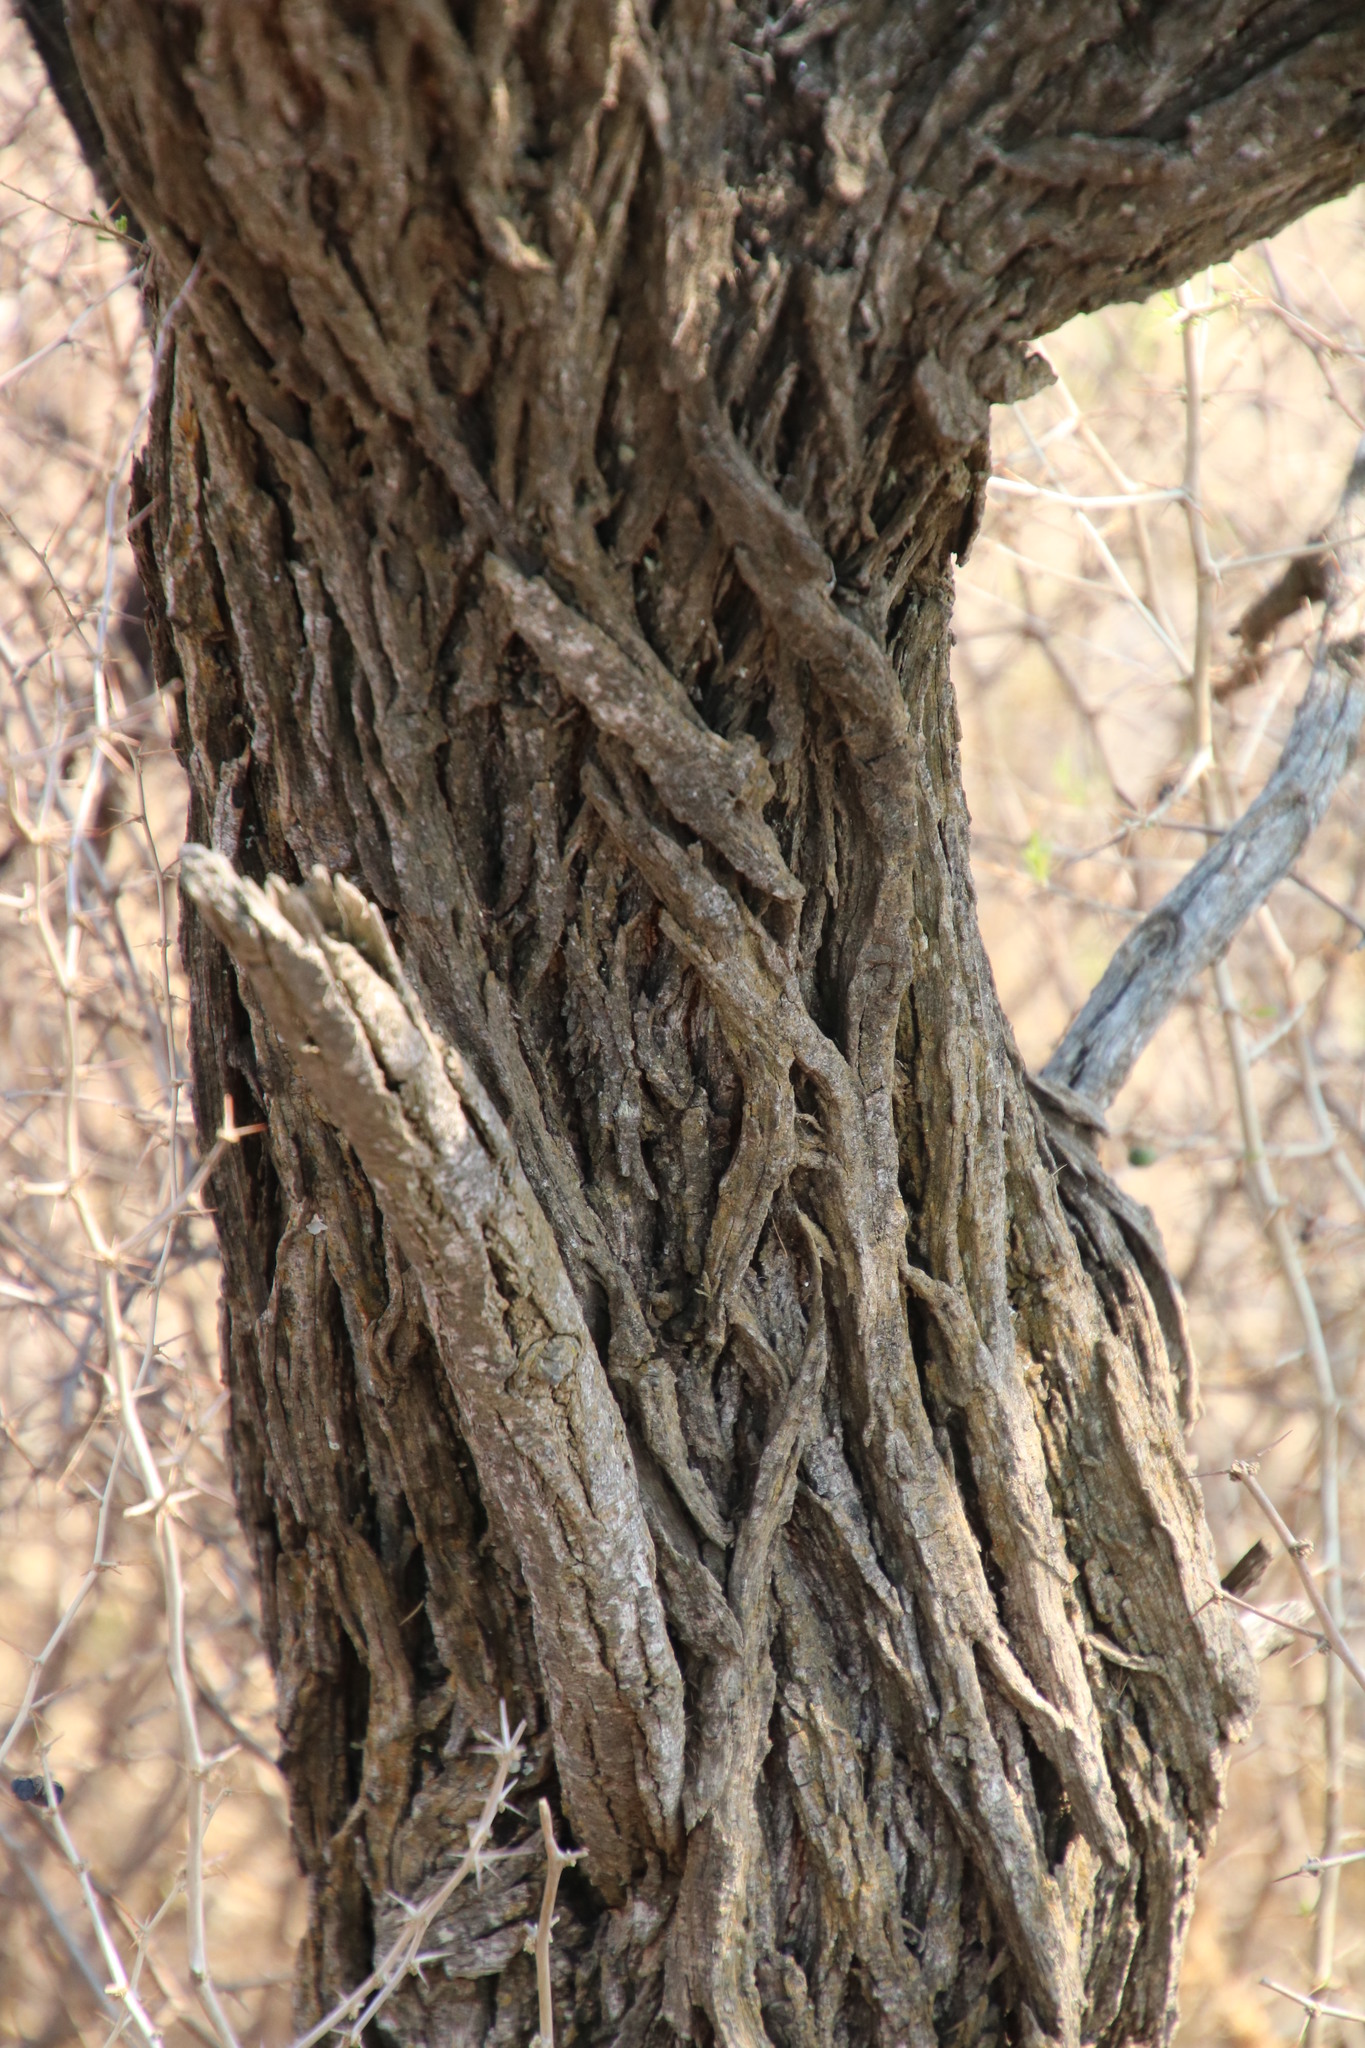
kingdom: Plantae
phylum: Tracheophyta
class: Magnoliopsida
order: Fabales
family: Fabaceae
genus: Vachellia
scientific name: Vachellia hebeclada
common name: Candle thorn
